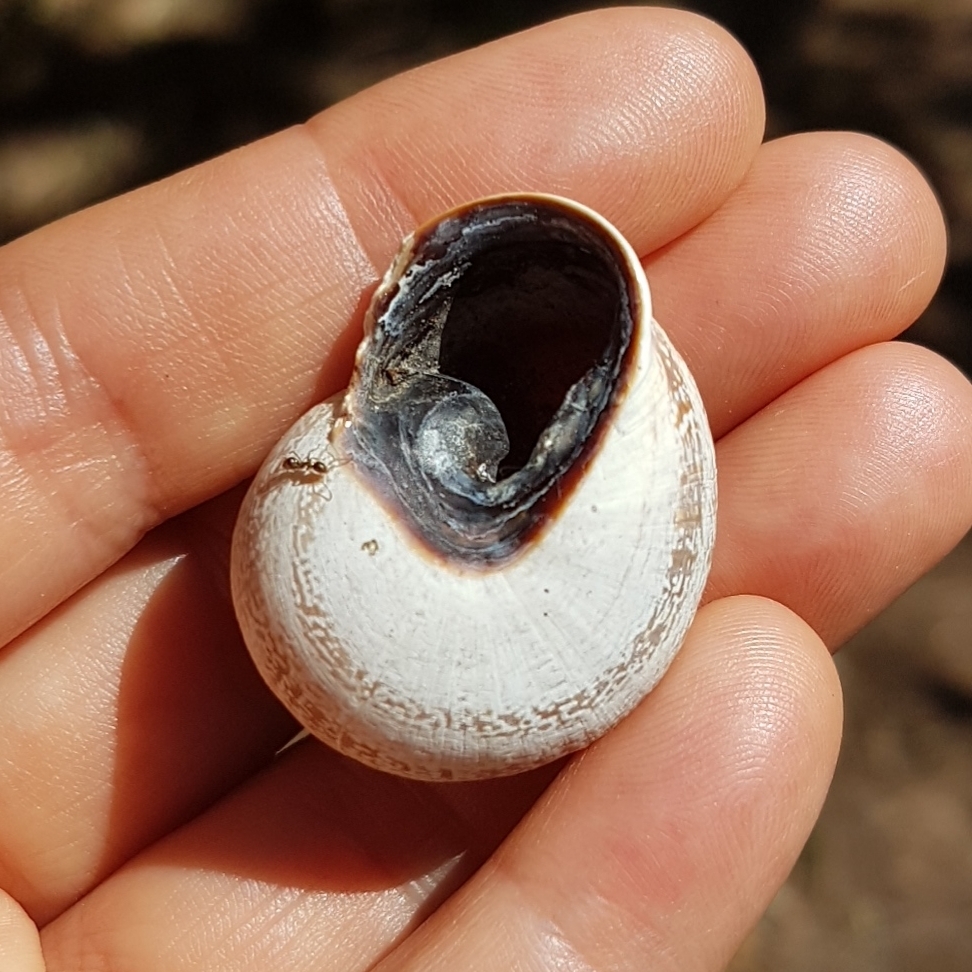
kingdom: Animalia
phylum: Mollusca
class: Gastropoda
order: Stylommatophora
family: Helicidae
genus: Otala
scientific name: Otala lactea
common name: Milk snail
